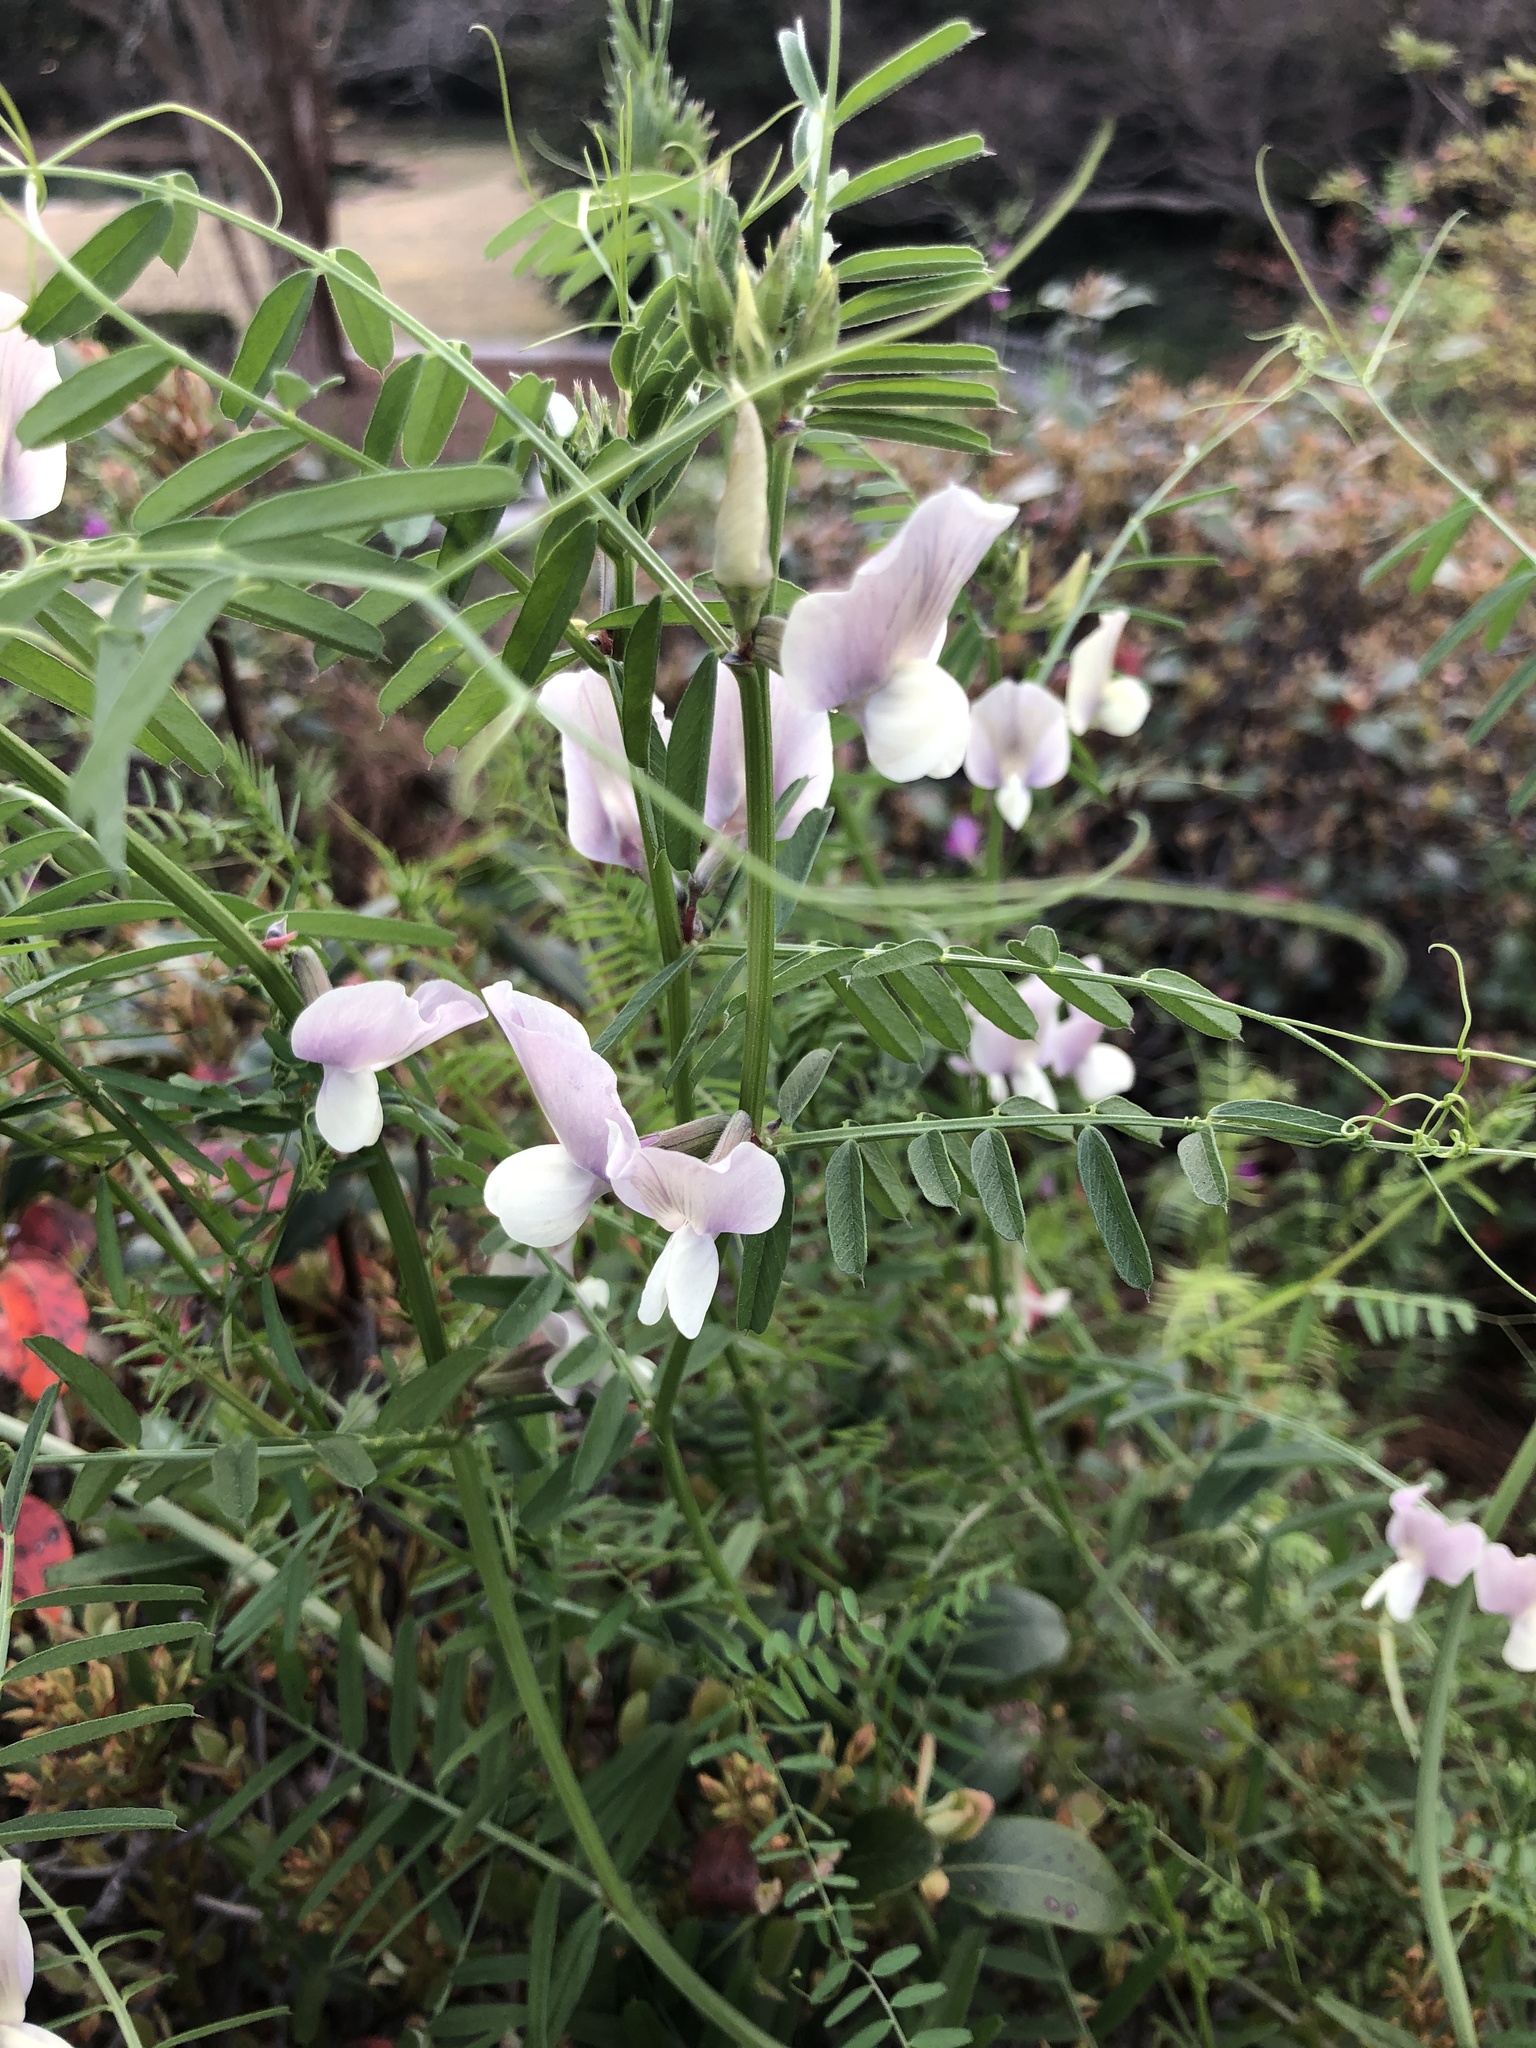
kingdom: Plantae
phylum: Tracheophyta
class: Magnoliopsida
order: Fabales
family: Fabaceae
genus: Vicia
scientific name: Vicia grandiflora
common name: Large yellow vetch
